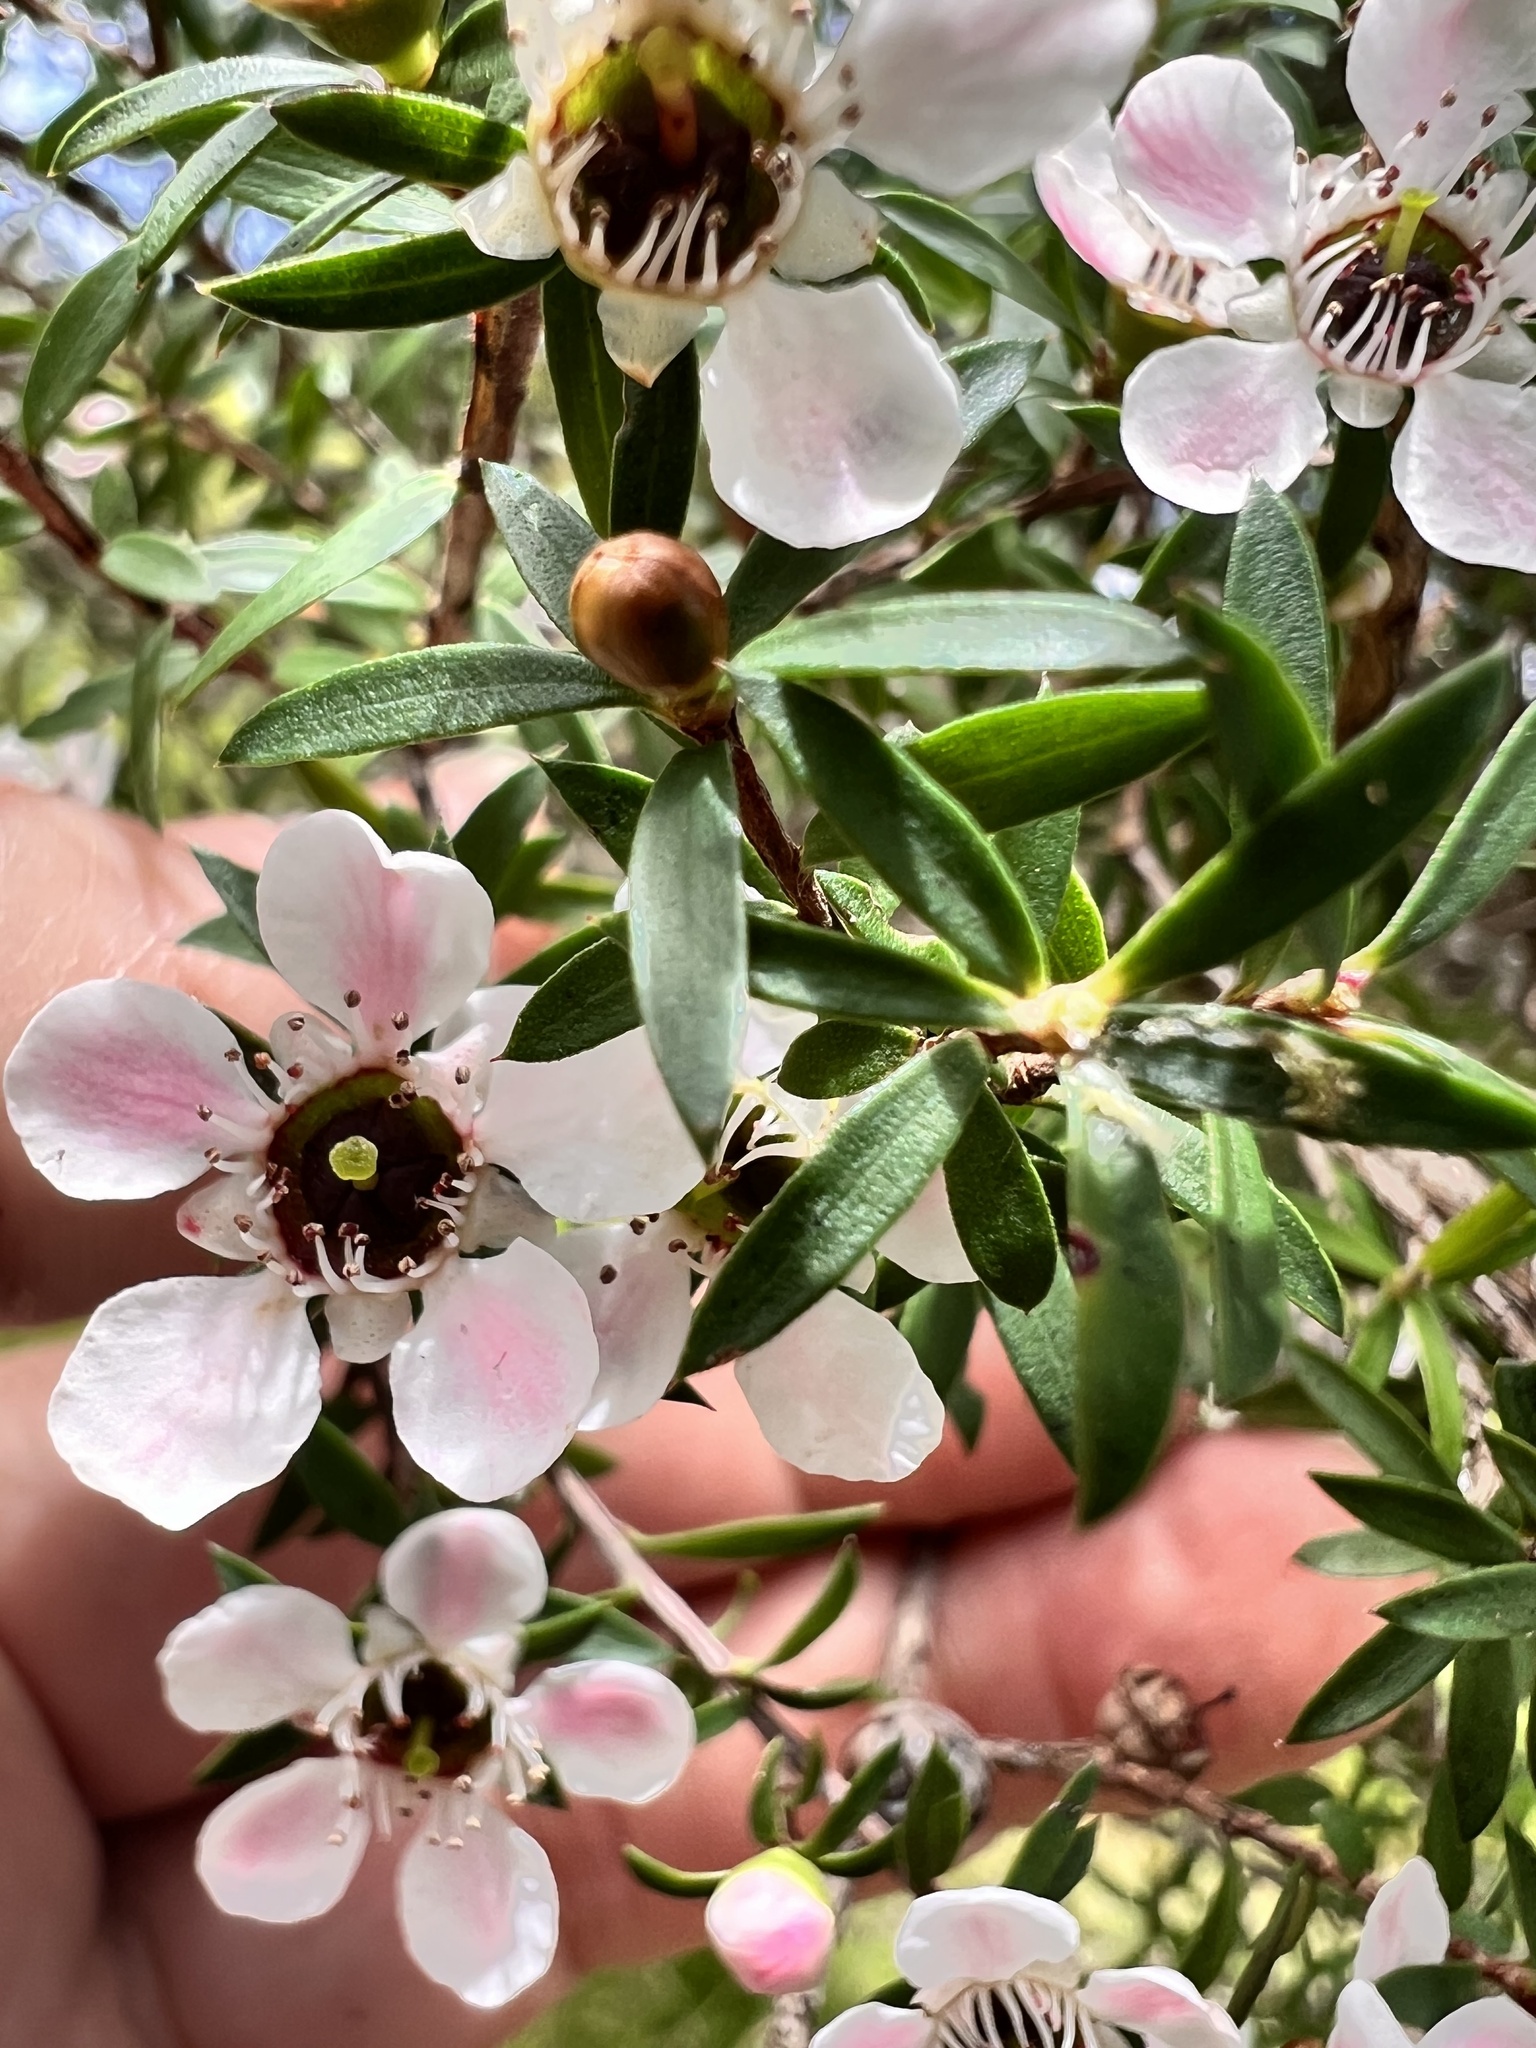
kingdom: Plantae
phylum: Tracheophyta
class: Magnoliopsida
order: Myrtales
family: Myrtaceae
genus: Leptospermum
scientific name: Leptospermum scoparium
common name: Broom tea-tree
